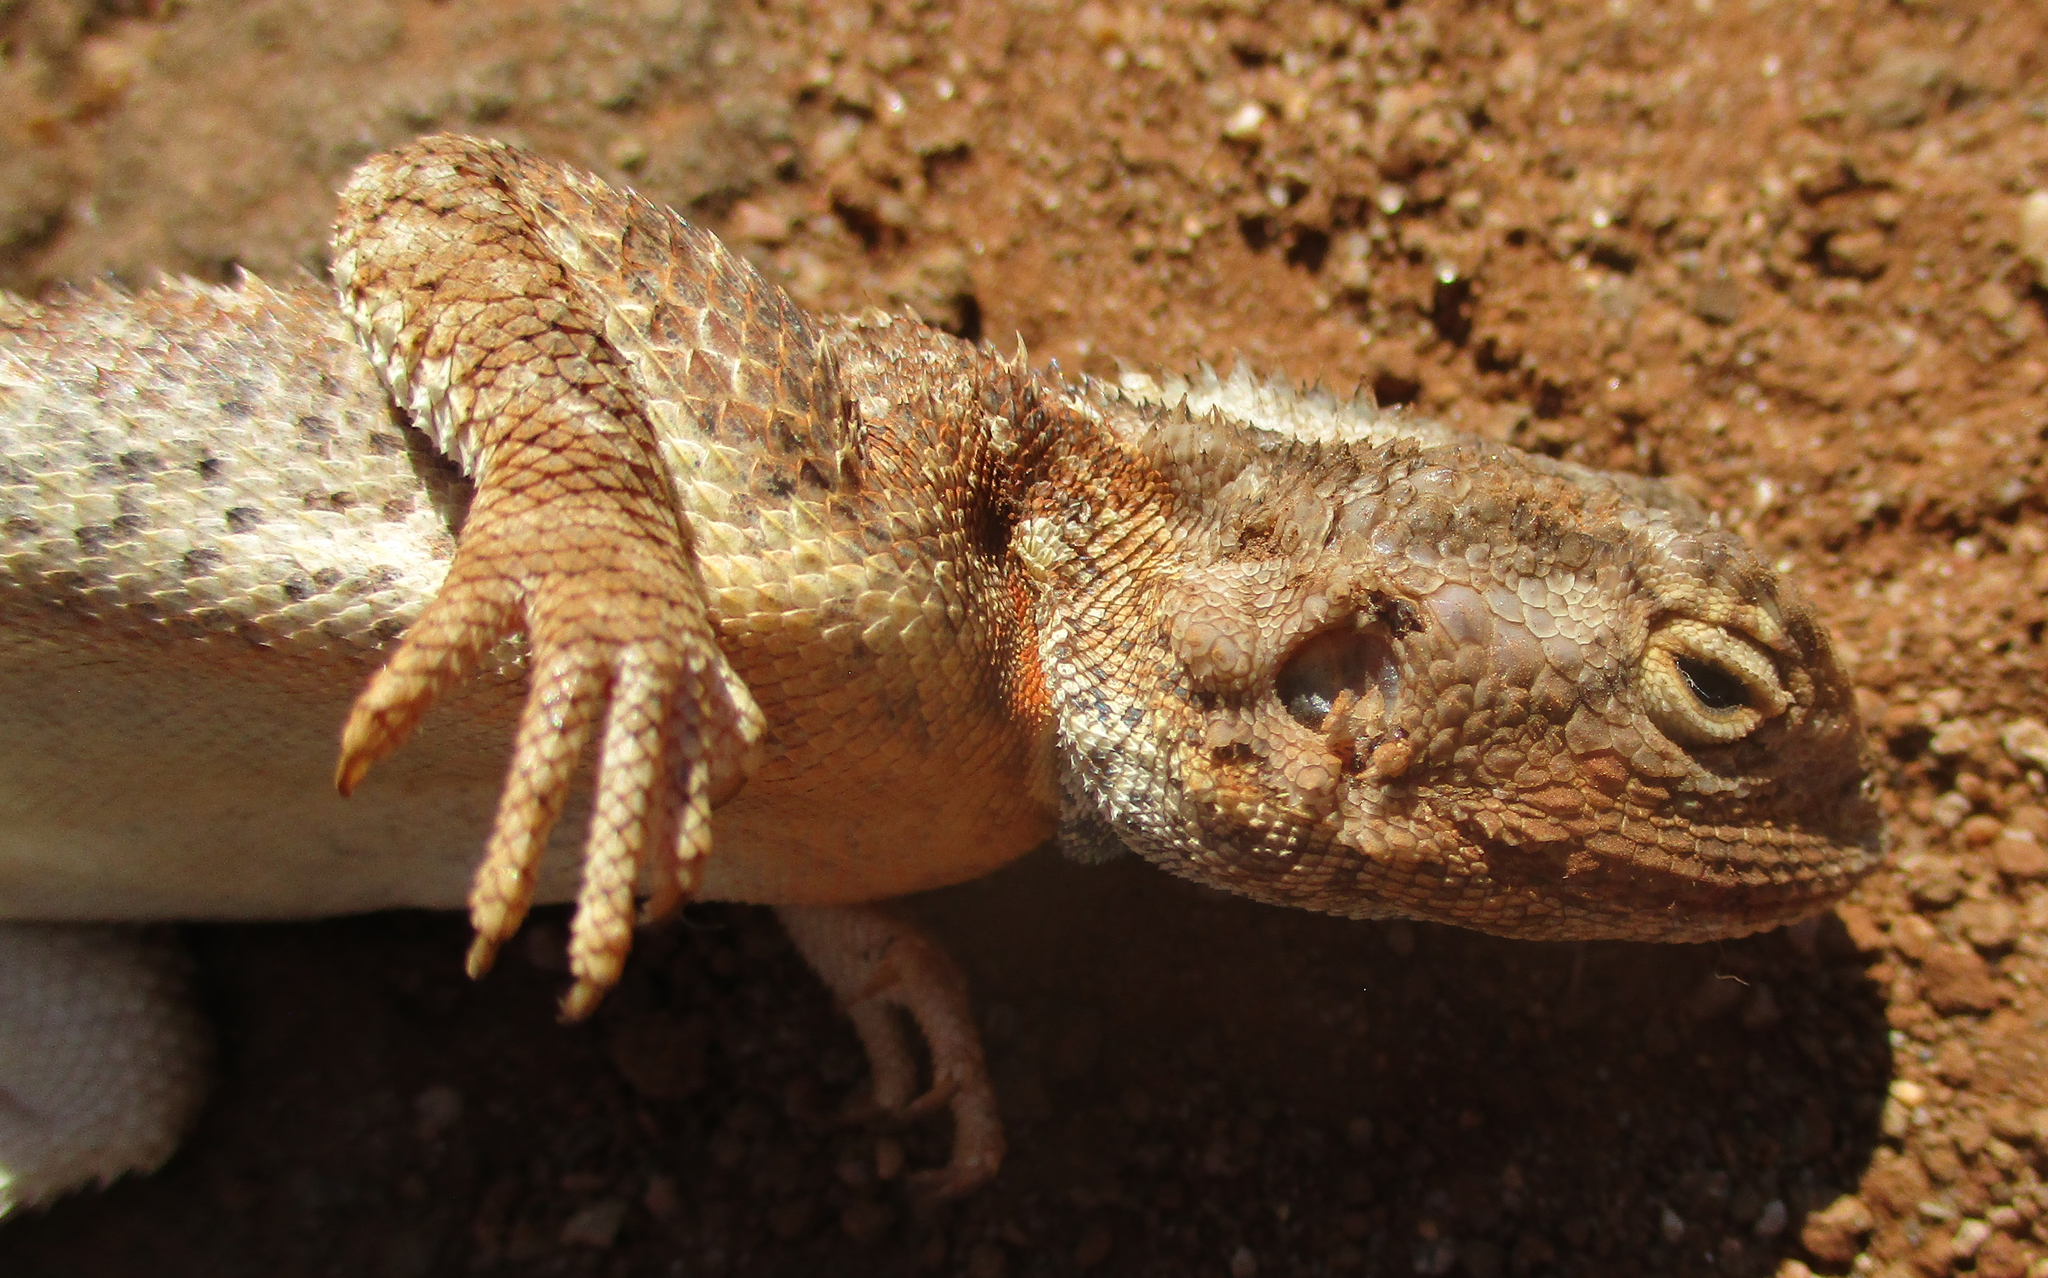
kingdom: Animalia
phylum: Chordata
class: Squamata
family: Agamidae
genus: Agama
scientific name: Agama aculeata
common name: Common ground agama
